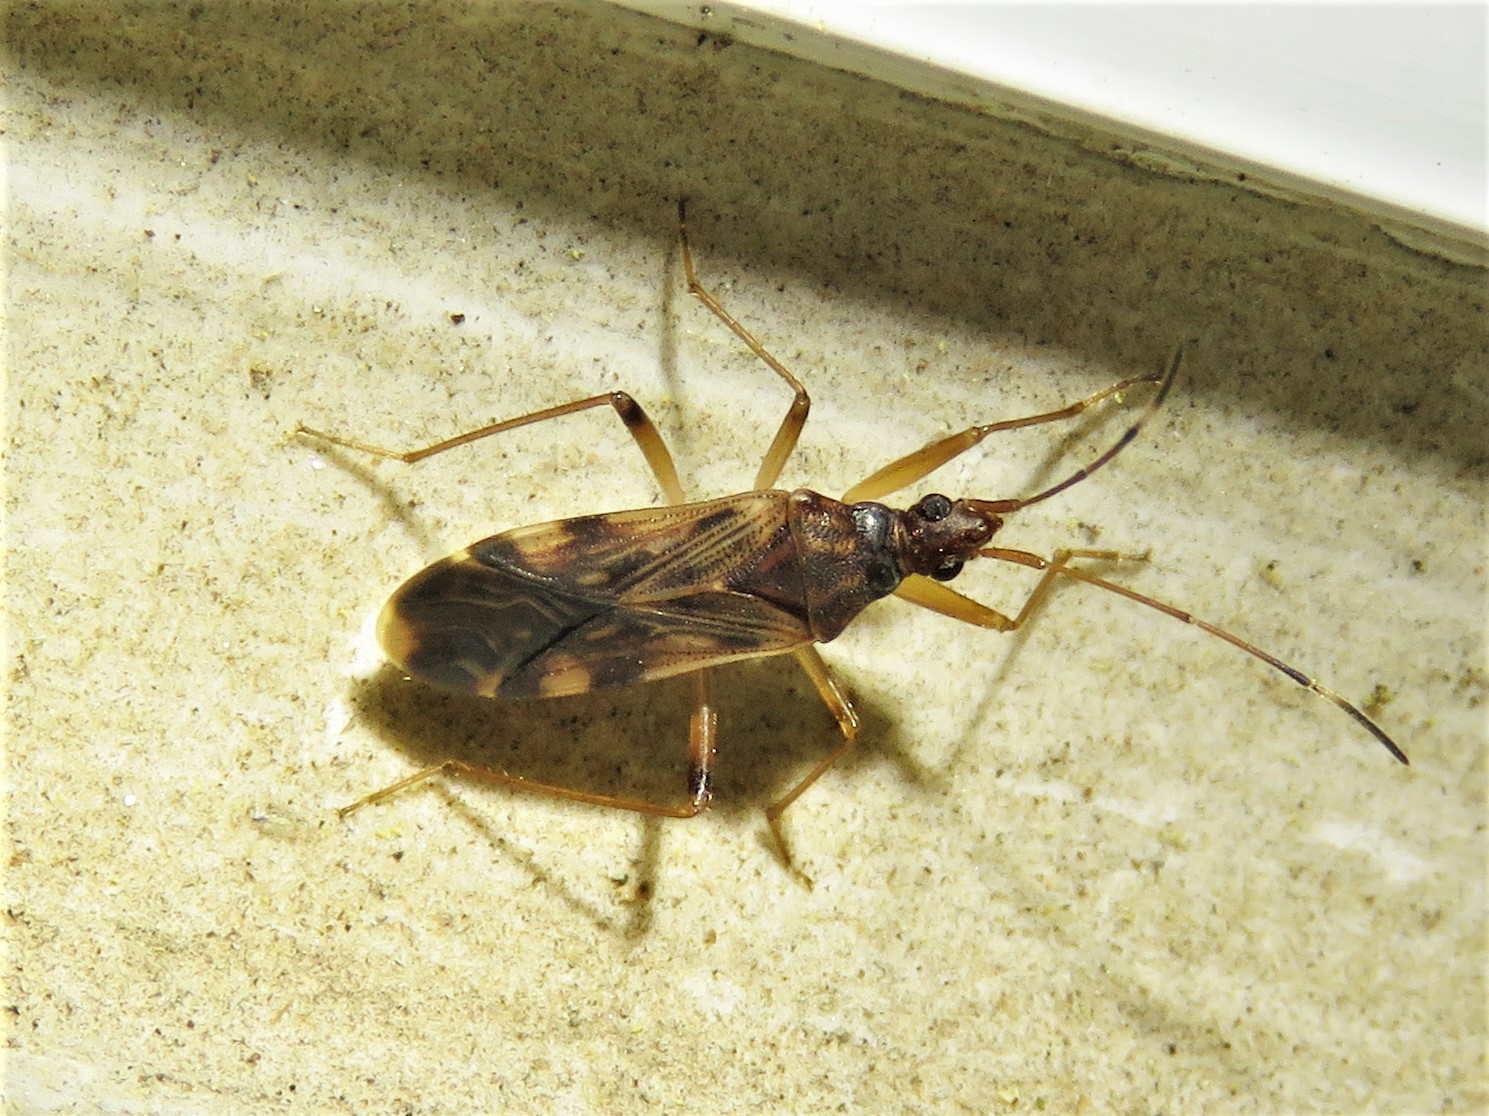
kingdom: Animalia
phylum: Arthropoda
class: Insecta
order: Hemiptera
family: Rhyparochromidae
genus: Ozophora
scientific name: Ozophora depicturata
